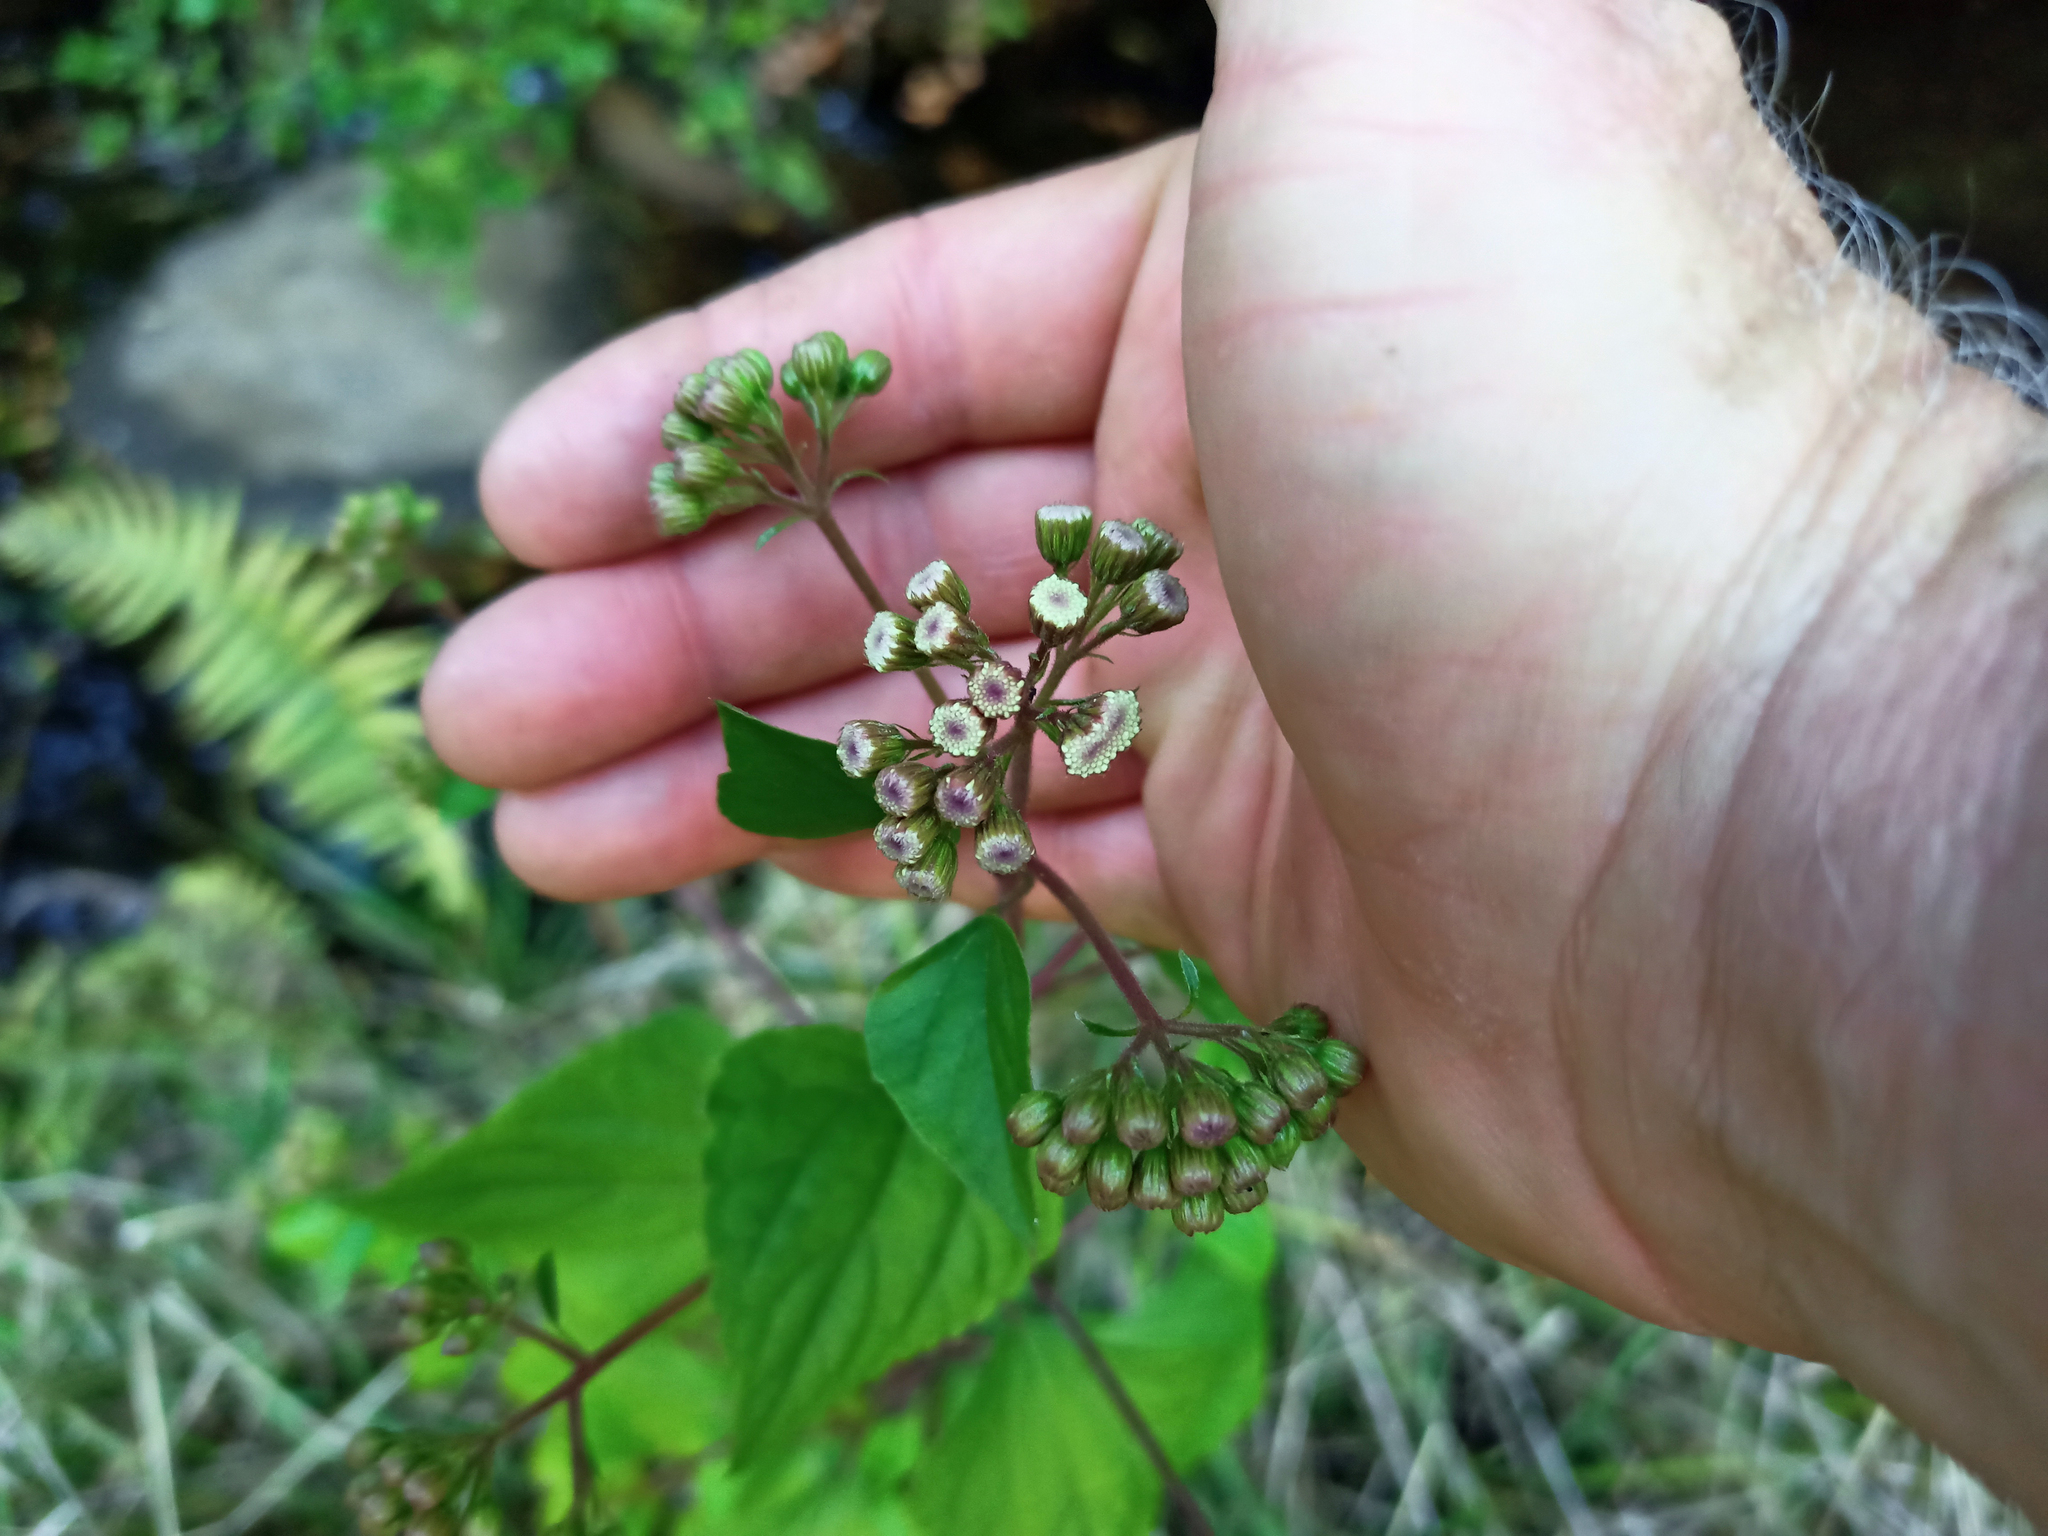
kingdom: Plantae
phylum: Tracheophyta
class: Magnoliopsida
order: Asterales
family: Asteraceae
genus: Ageratina
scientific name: Ageratina adenophora
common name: Sticky snakeroot
